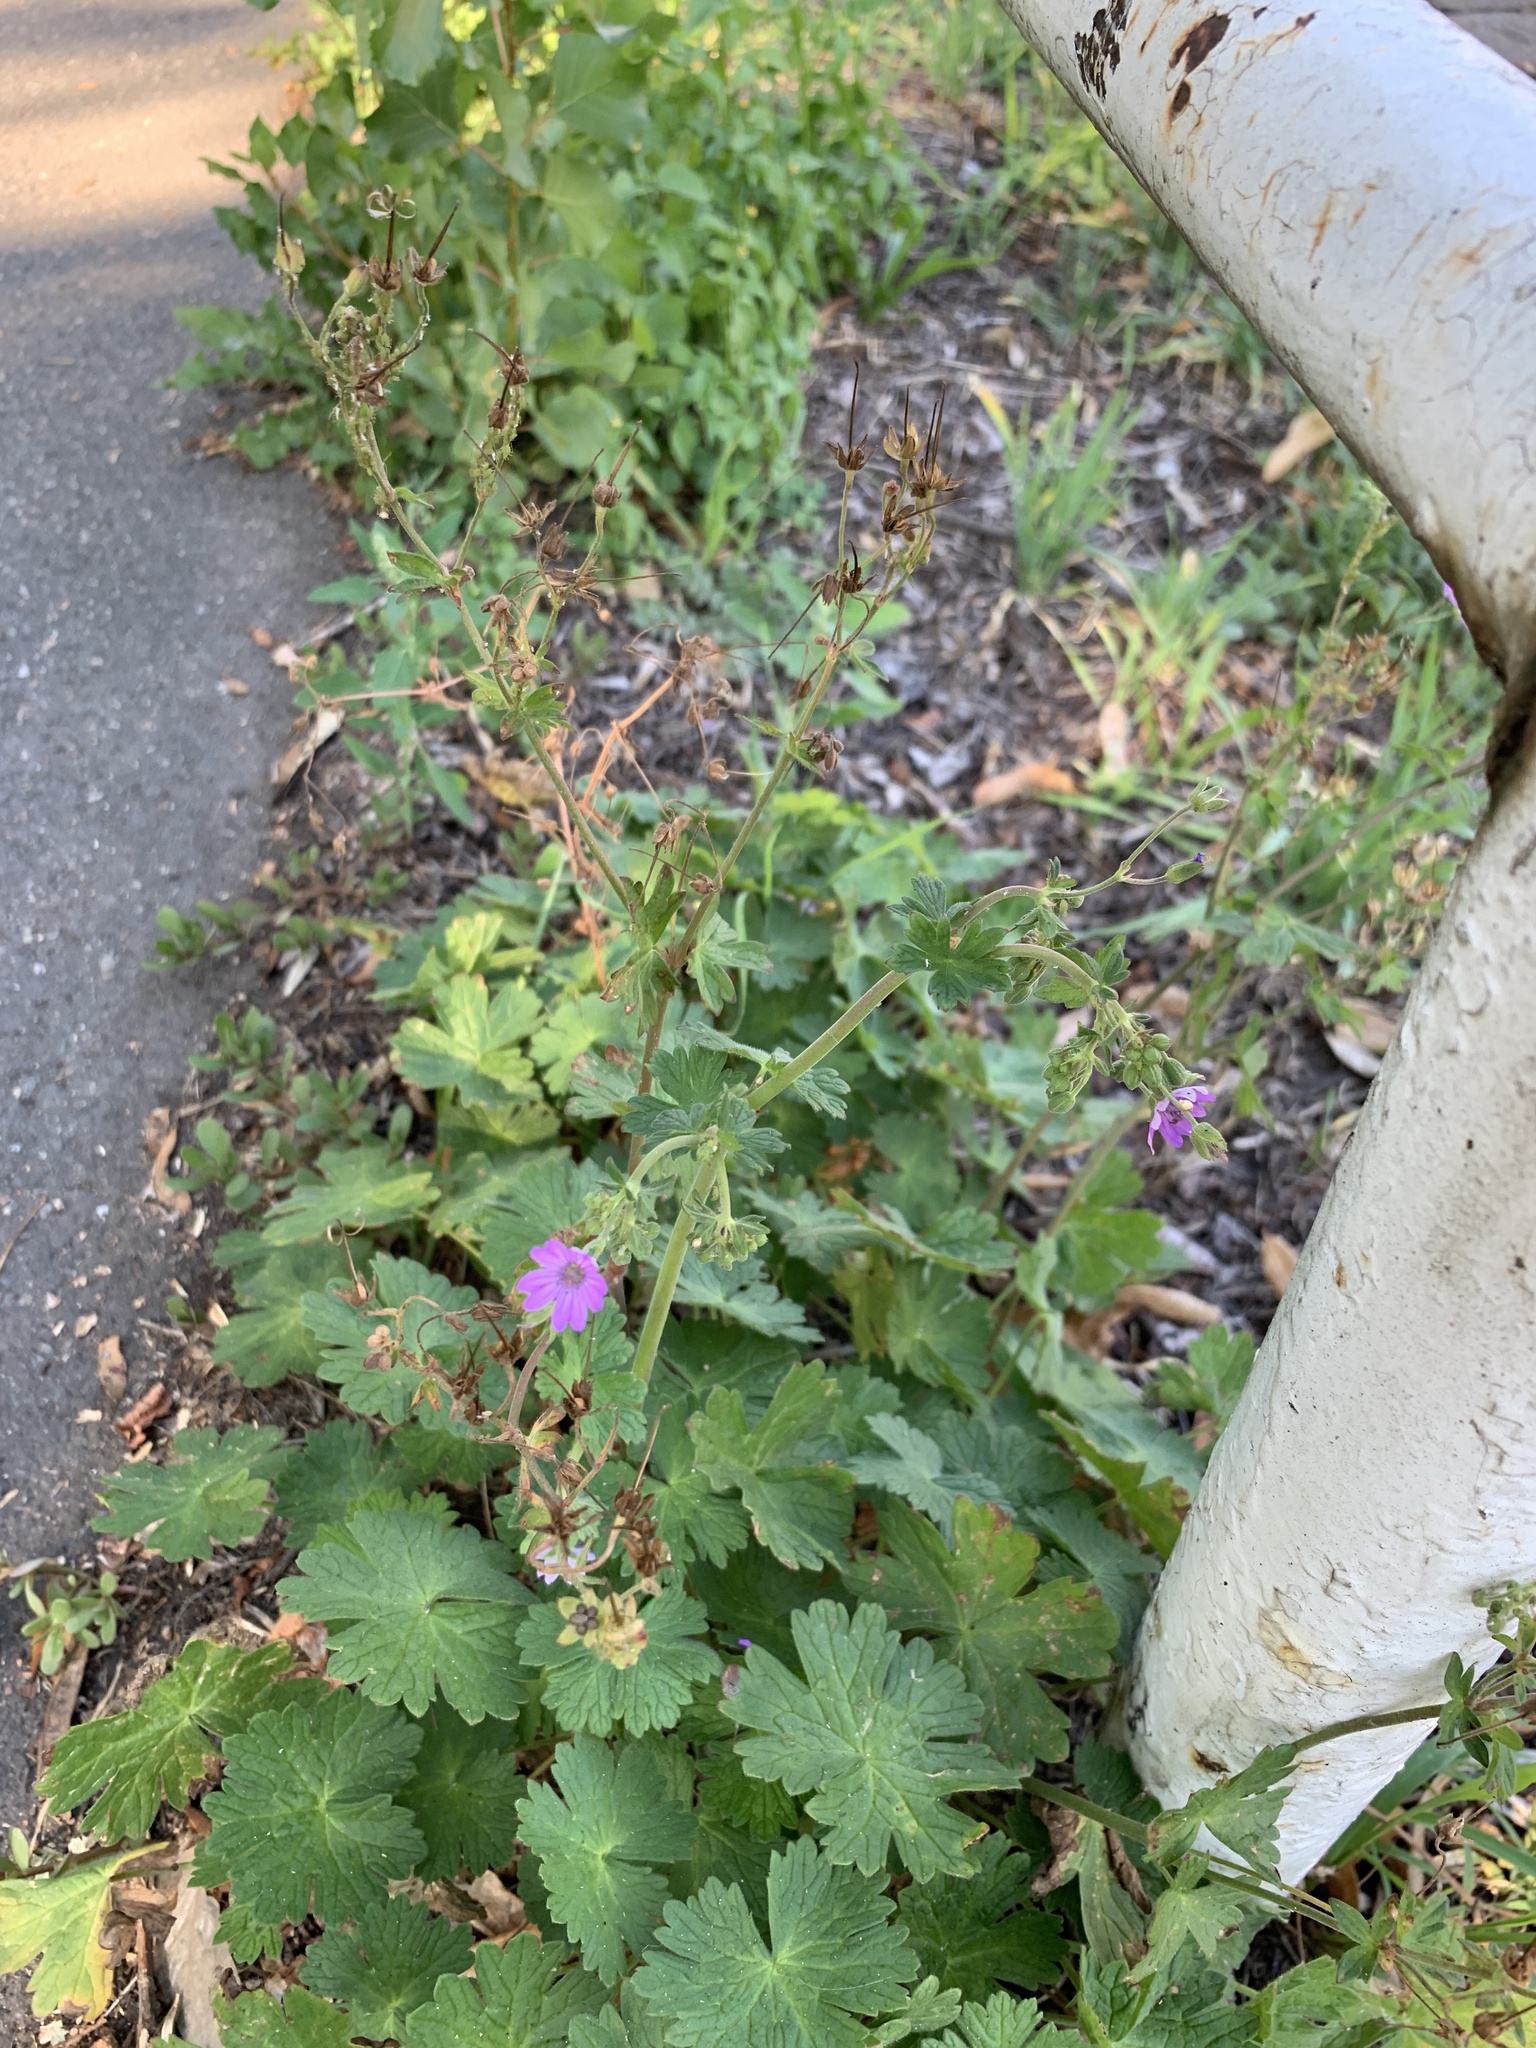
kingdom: Plantae
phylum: Tracheophyta
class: Magnoliopsida
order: Geraniales
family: Geraniaceae
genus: Geranium
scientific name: Geranium pyrenaicum
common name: Hedgerow crane's-bill
